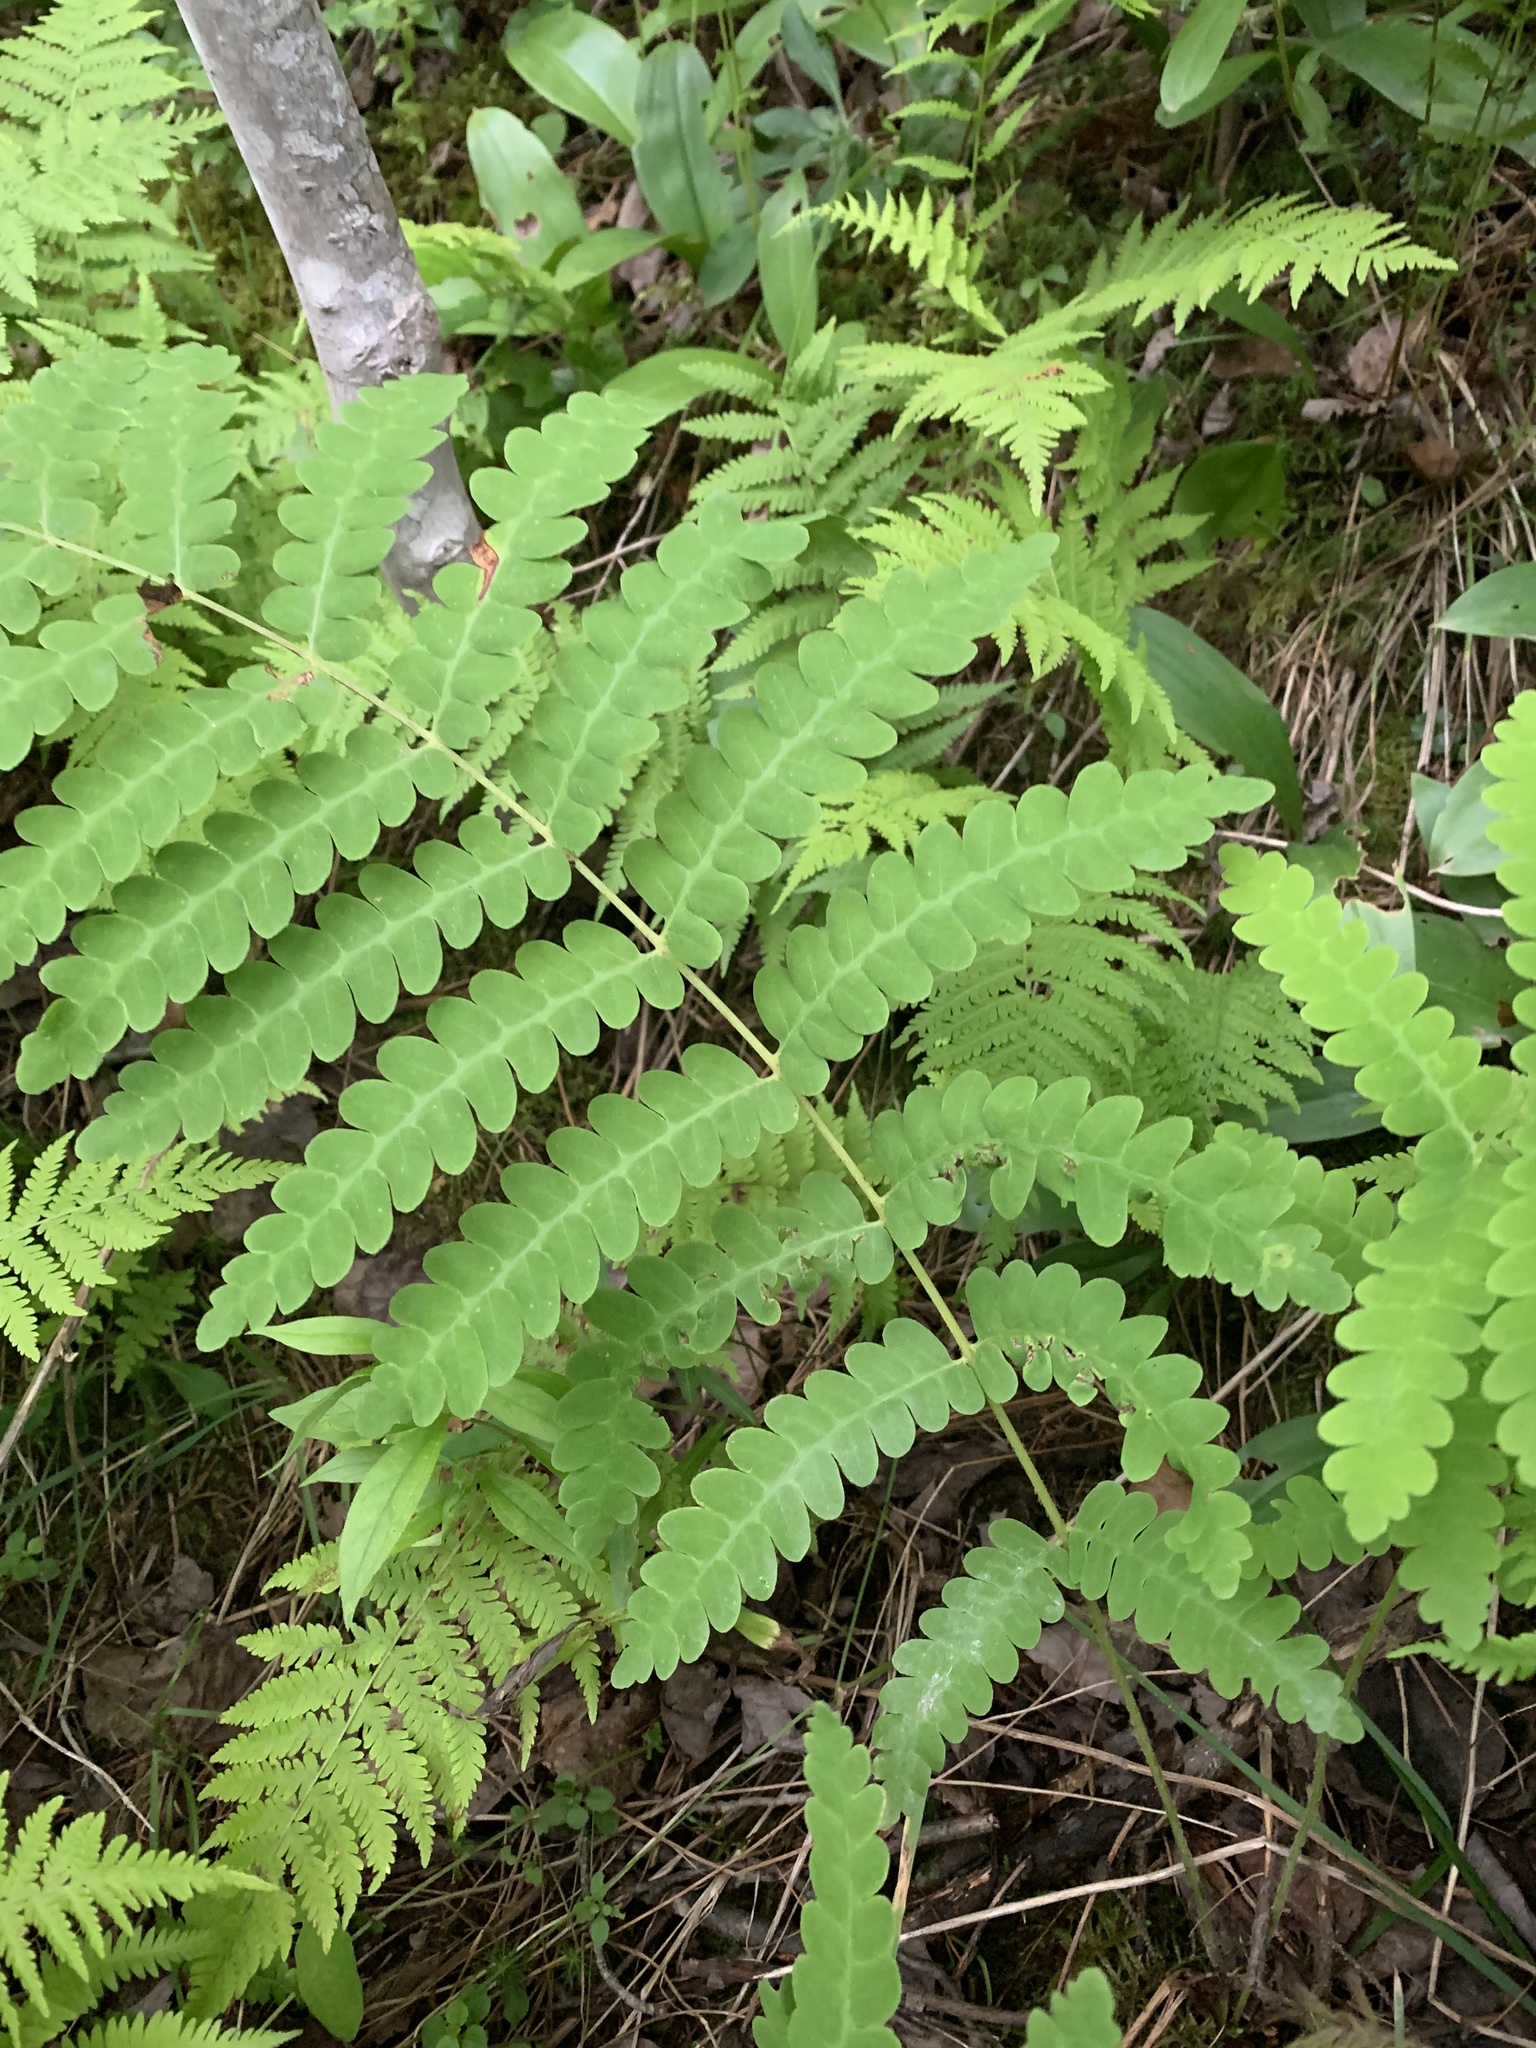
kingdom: Plantae
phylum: Tracheophyta
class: Polypodiopsida
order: Osmundales
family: Osmundaceae
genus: Claytosmunda
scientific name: Claytosmunda claytoniana
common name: Clayton's fern
